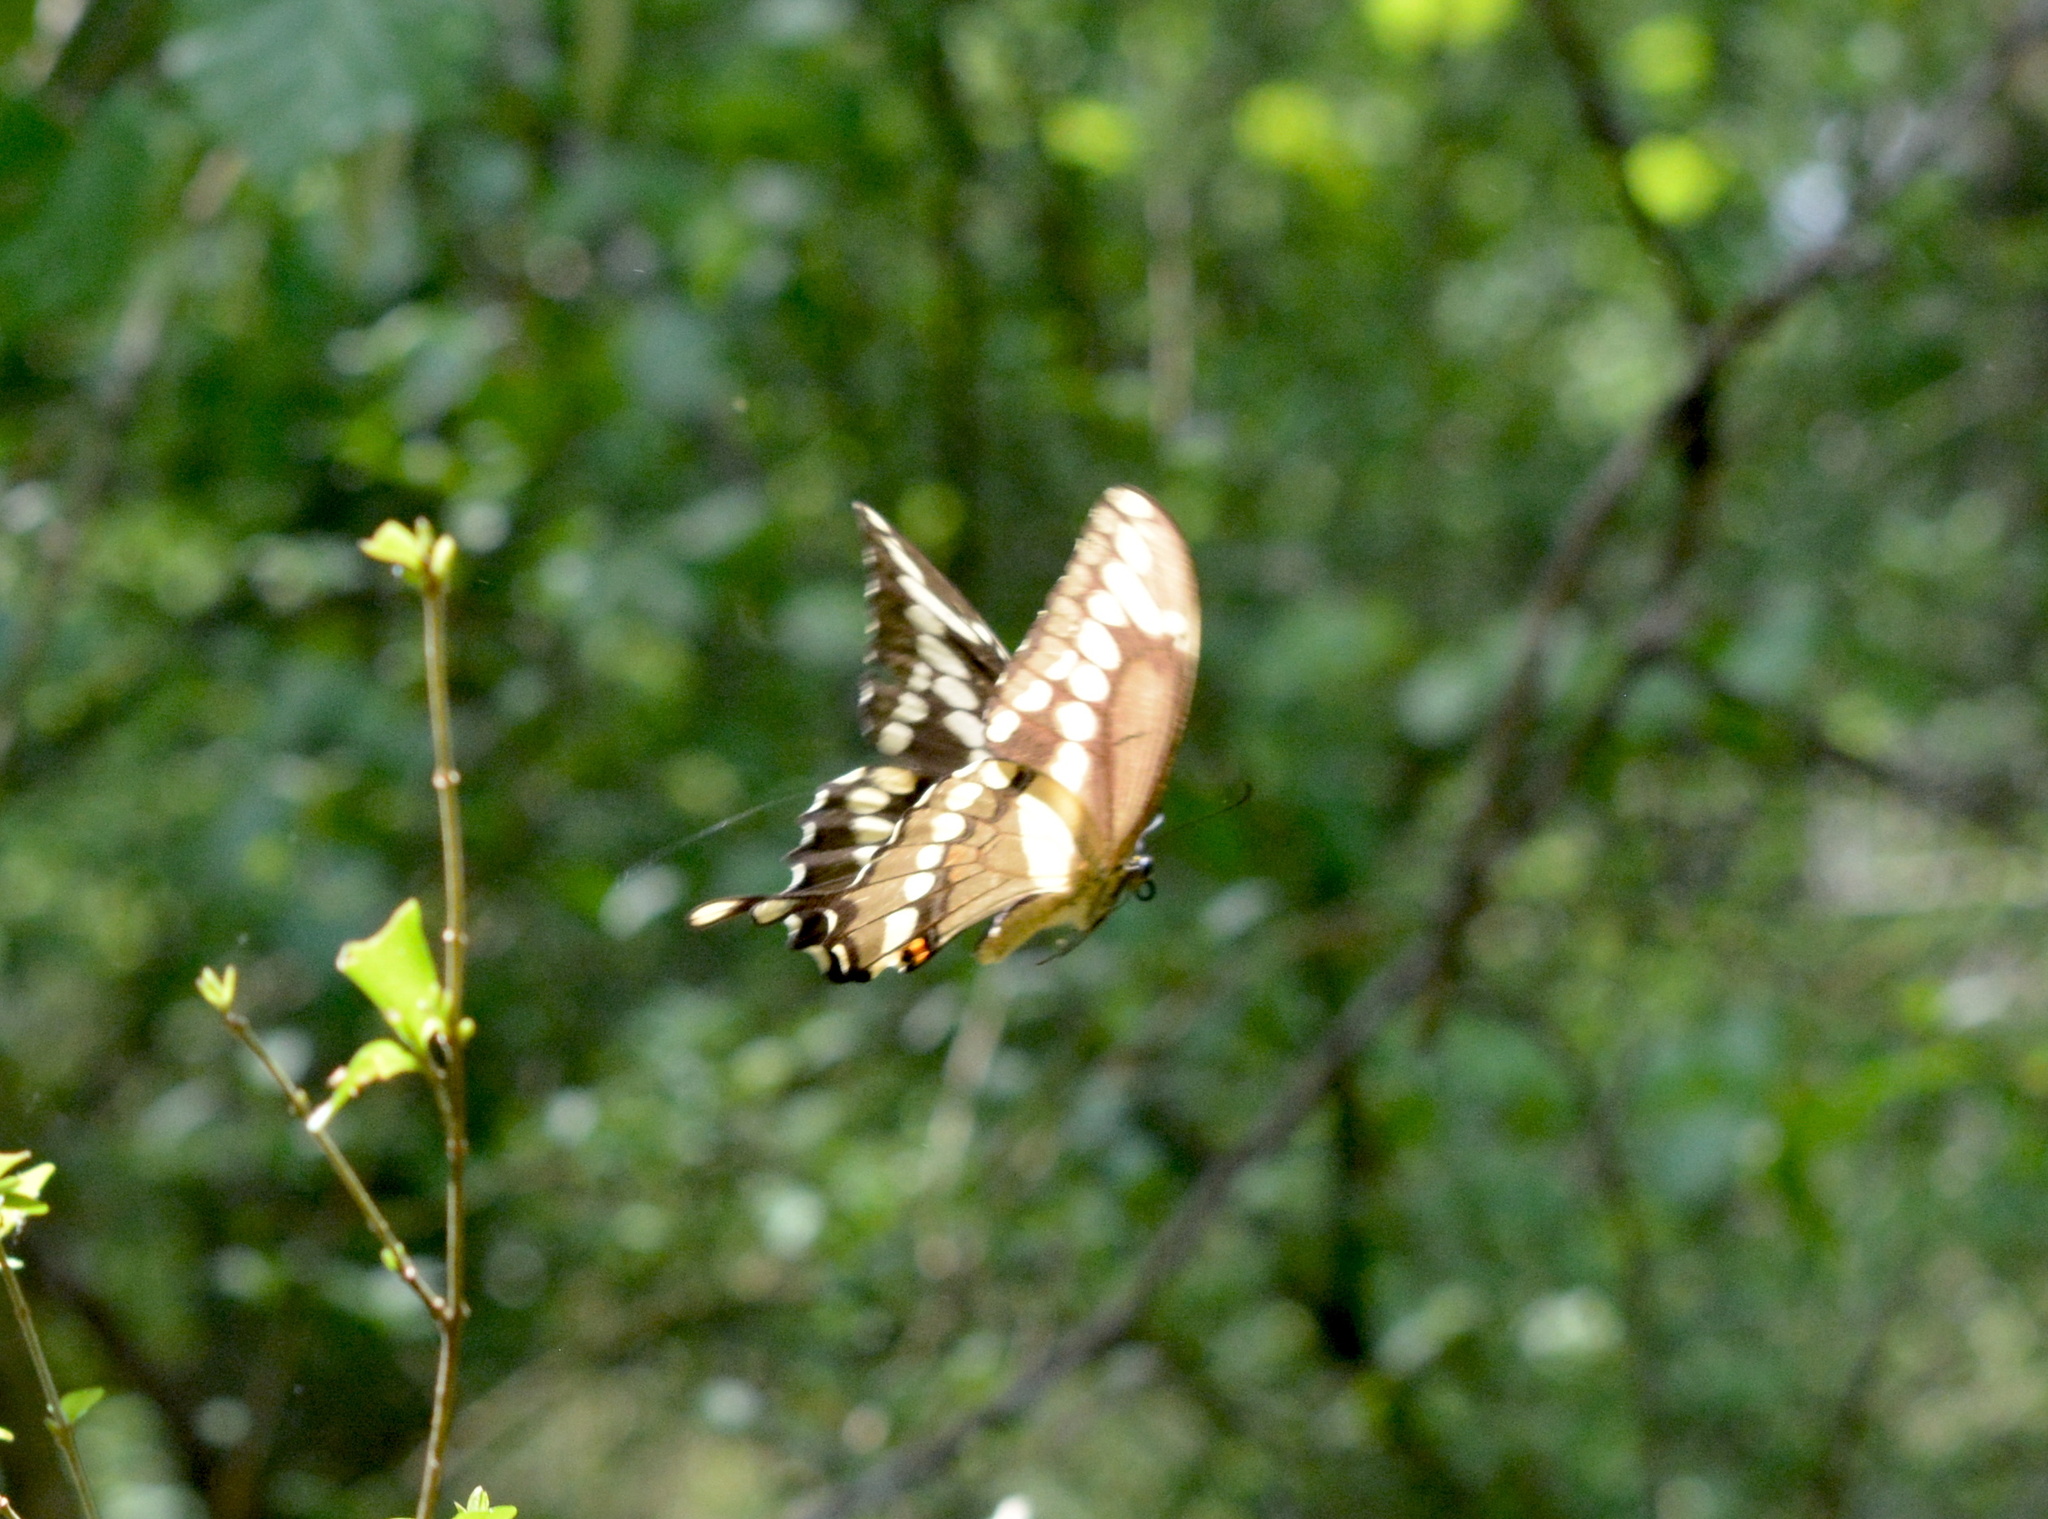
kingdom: Animalia
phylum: Arthropoda
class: Insecta
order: Lepidoptera
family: Papilionidae
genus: Papilio
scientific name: Papilio cresphontes
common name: Giant swallowtail
